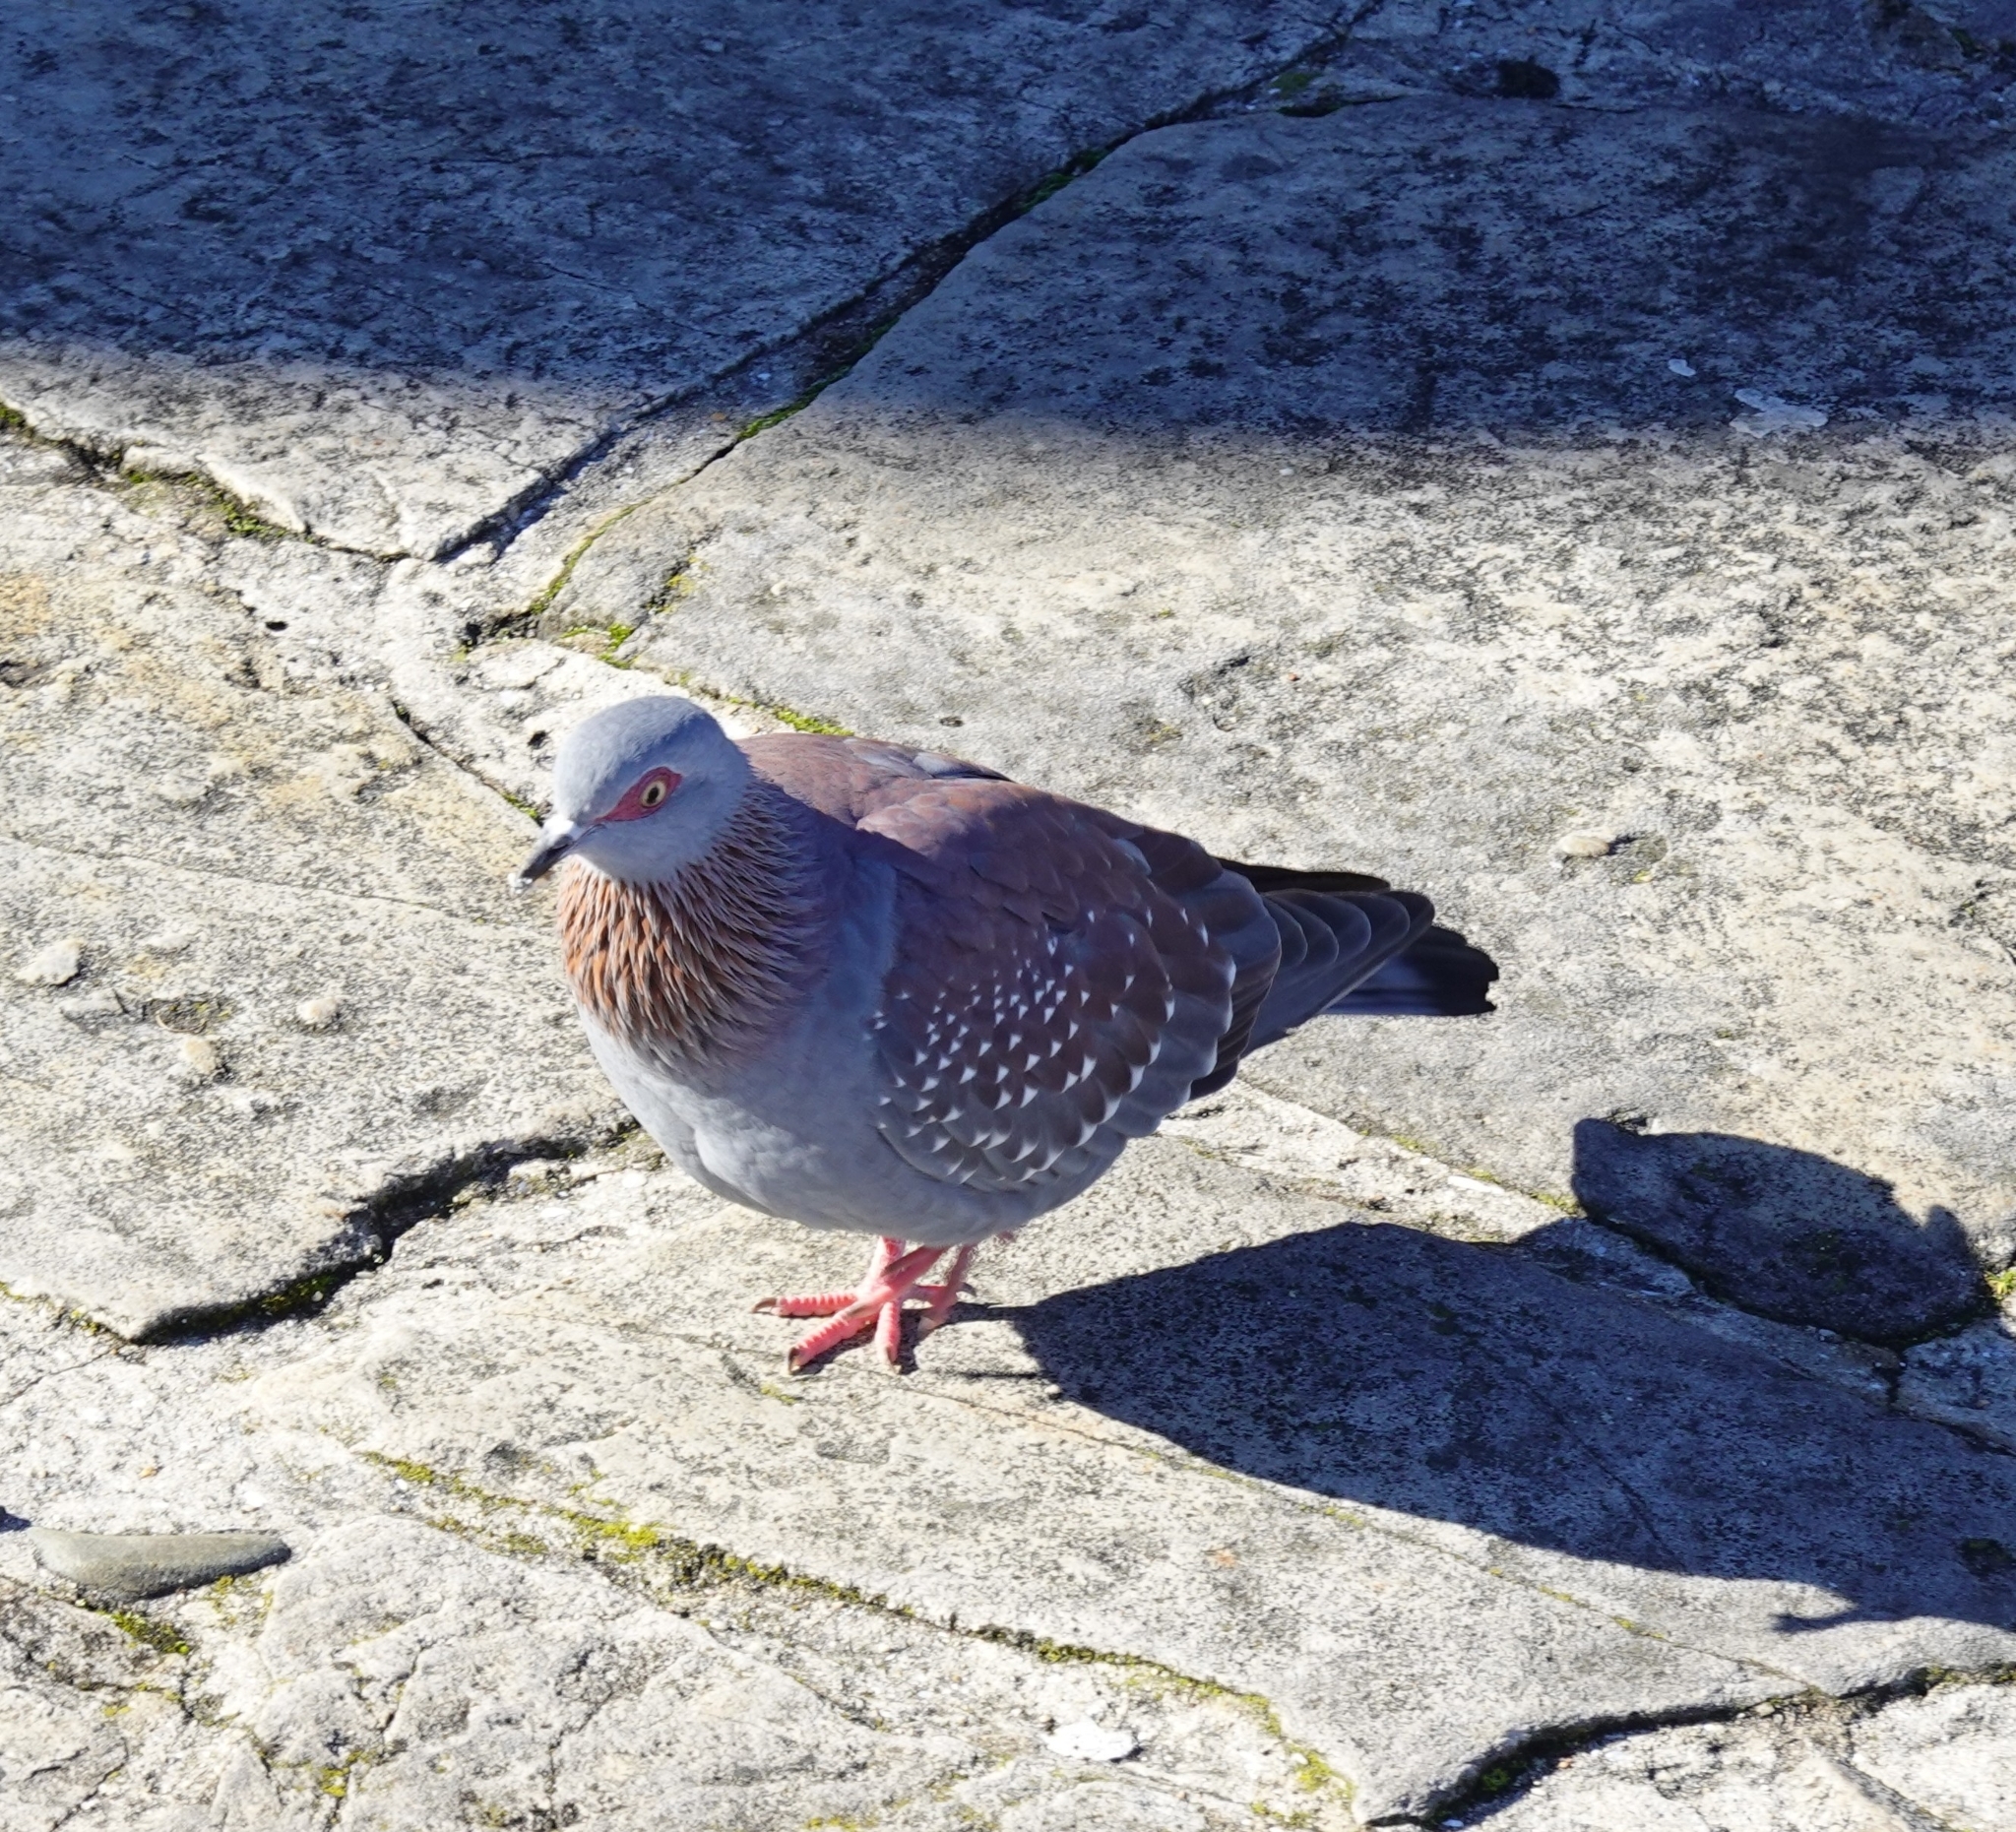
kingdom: Animalia
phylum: Chordata
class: Aves
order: Columbiformes
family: Columbidae
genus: Columba
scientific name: Columba guinea
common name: Speckled pigeon
